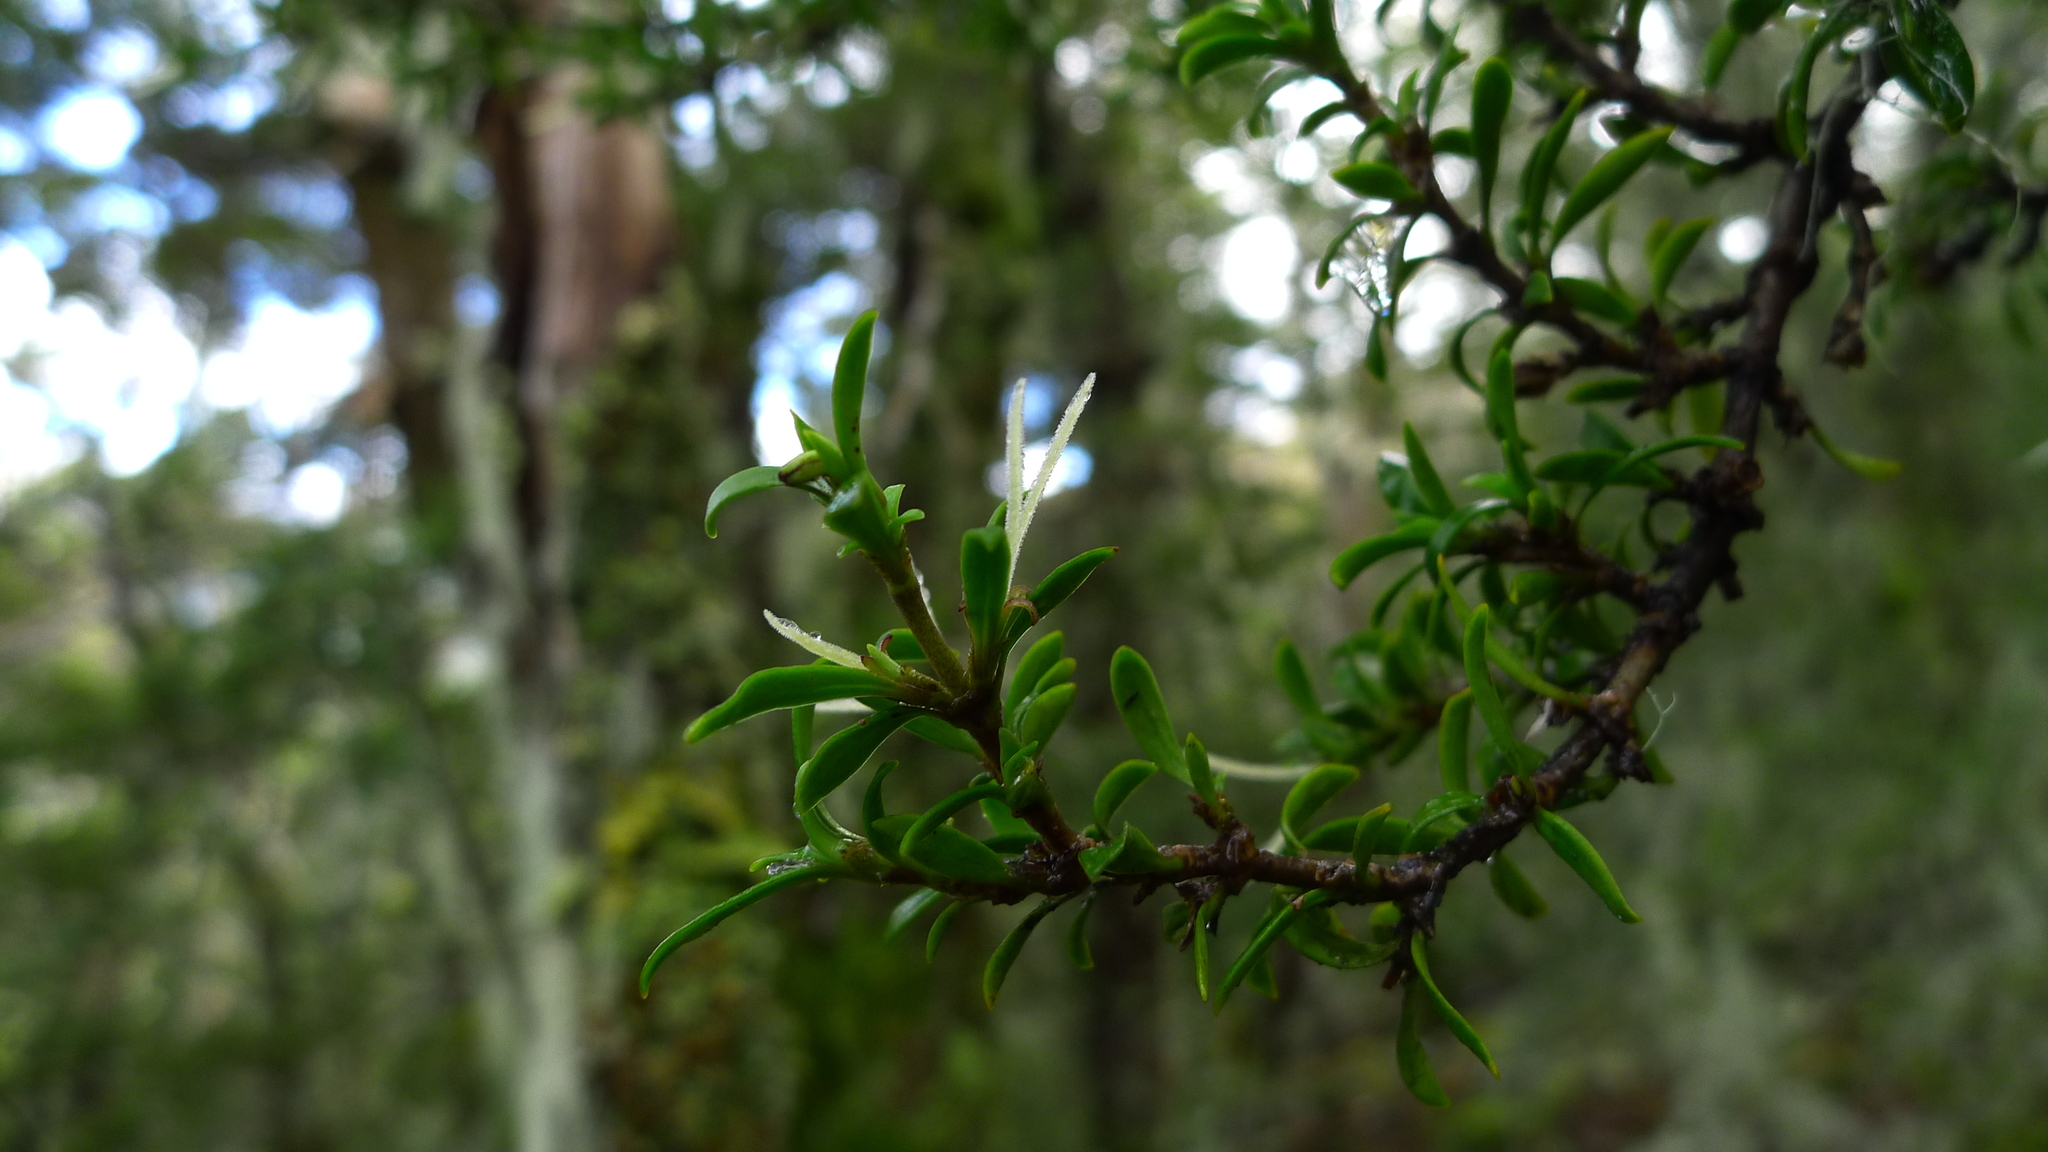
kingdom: Plantae
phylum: Tracheophyta
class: Magnoliopsida
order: Gentianales
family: Rubiaceae
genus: Coprosma
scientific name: Coprosma pseudocuneata
